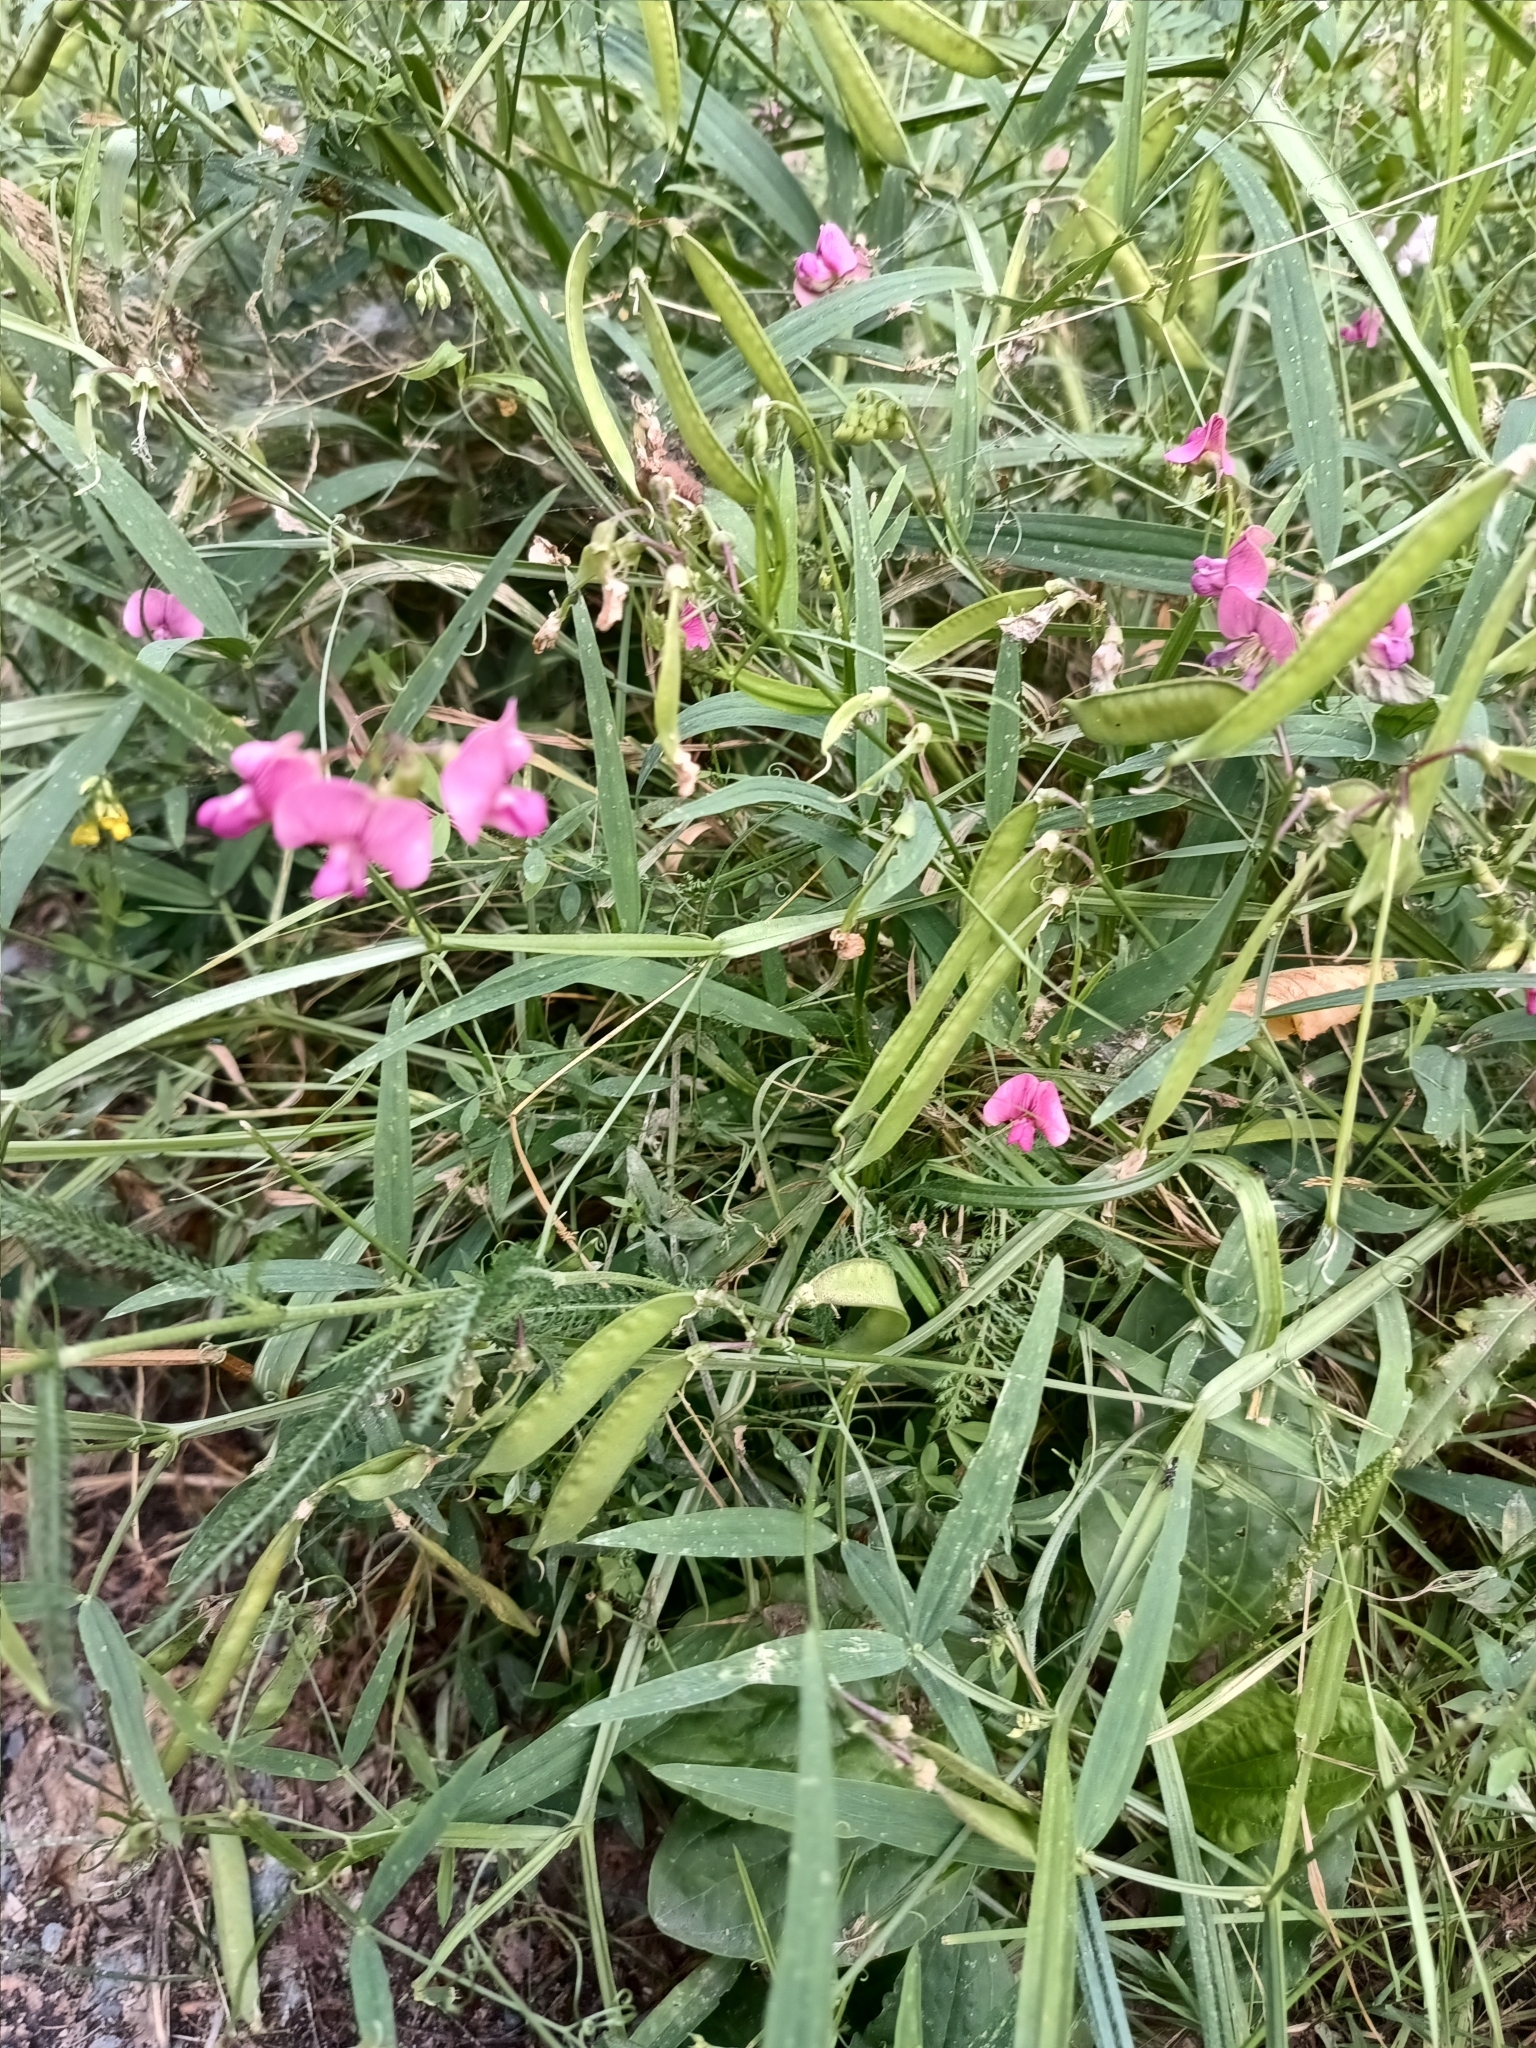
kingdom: Plantae
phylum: Tracheophyta
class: Magnoliopsida
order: Fabales
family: Fabaceae
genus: Lathyrus
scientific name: Lathyrus sylvestris
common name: Flat pea
